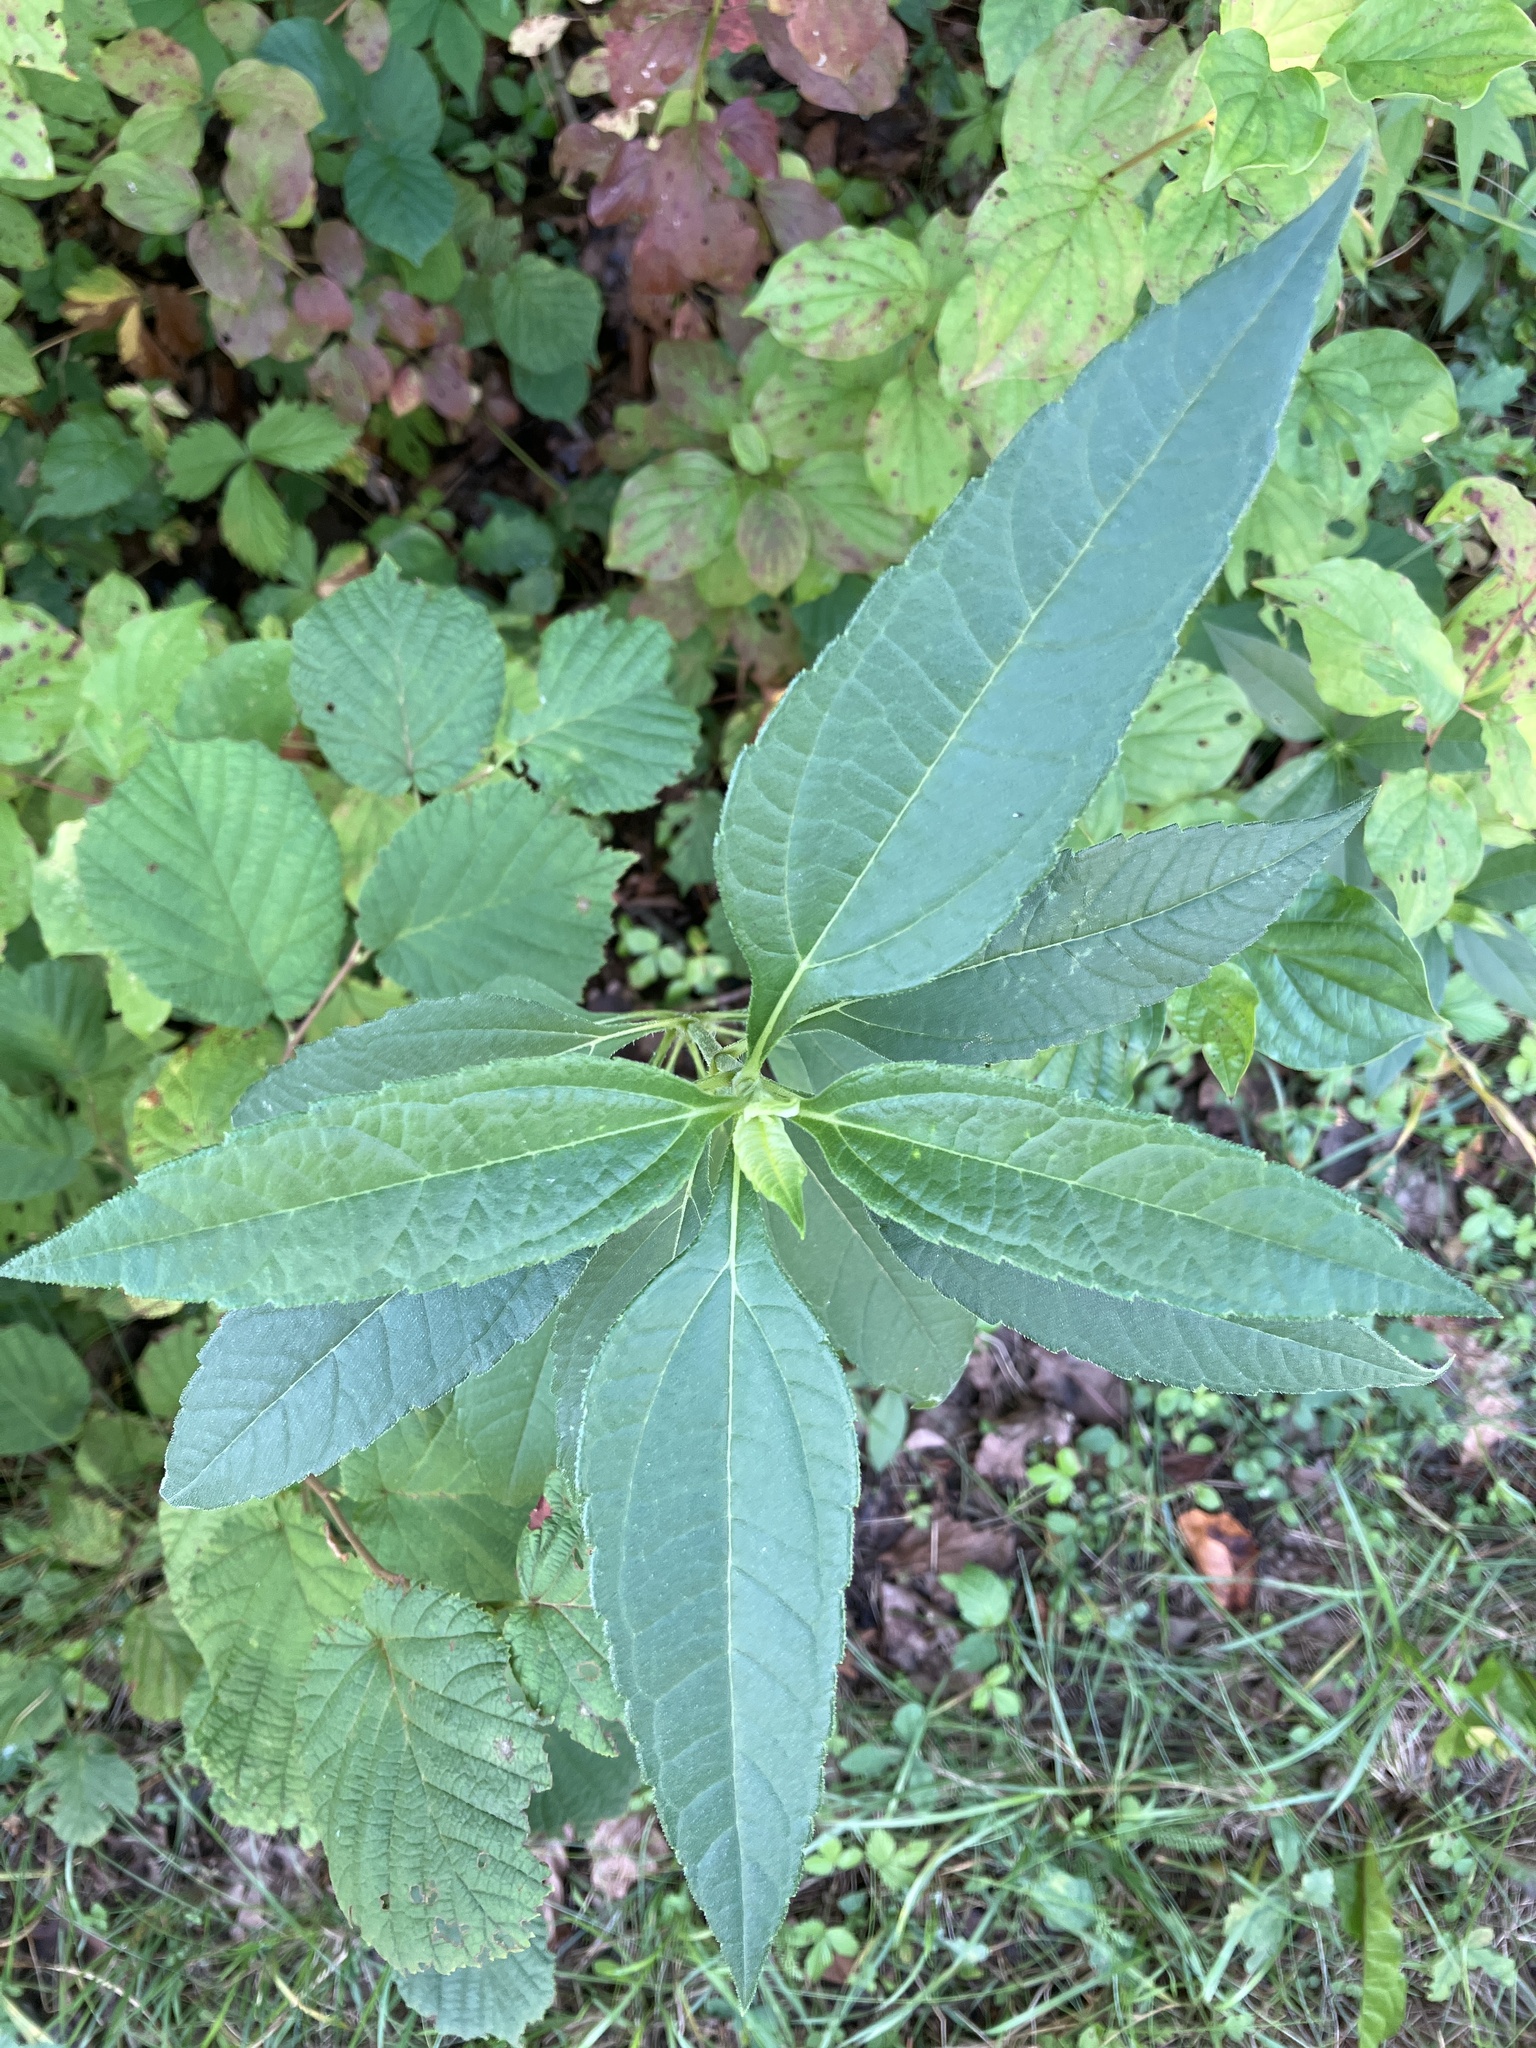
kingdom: Plantae
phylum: Tracheophyta
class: Magnoliopsida
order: Asterales
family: Asteraceae
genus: Helianthus
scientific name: Helianthus tuberosus
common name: Jerusalem artichoke
